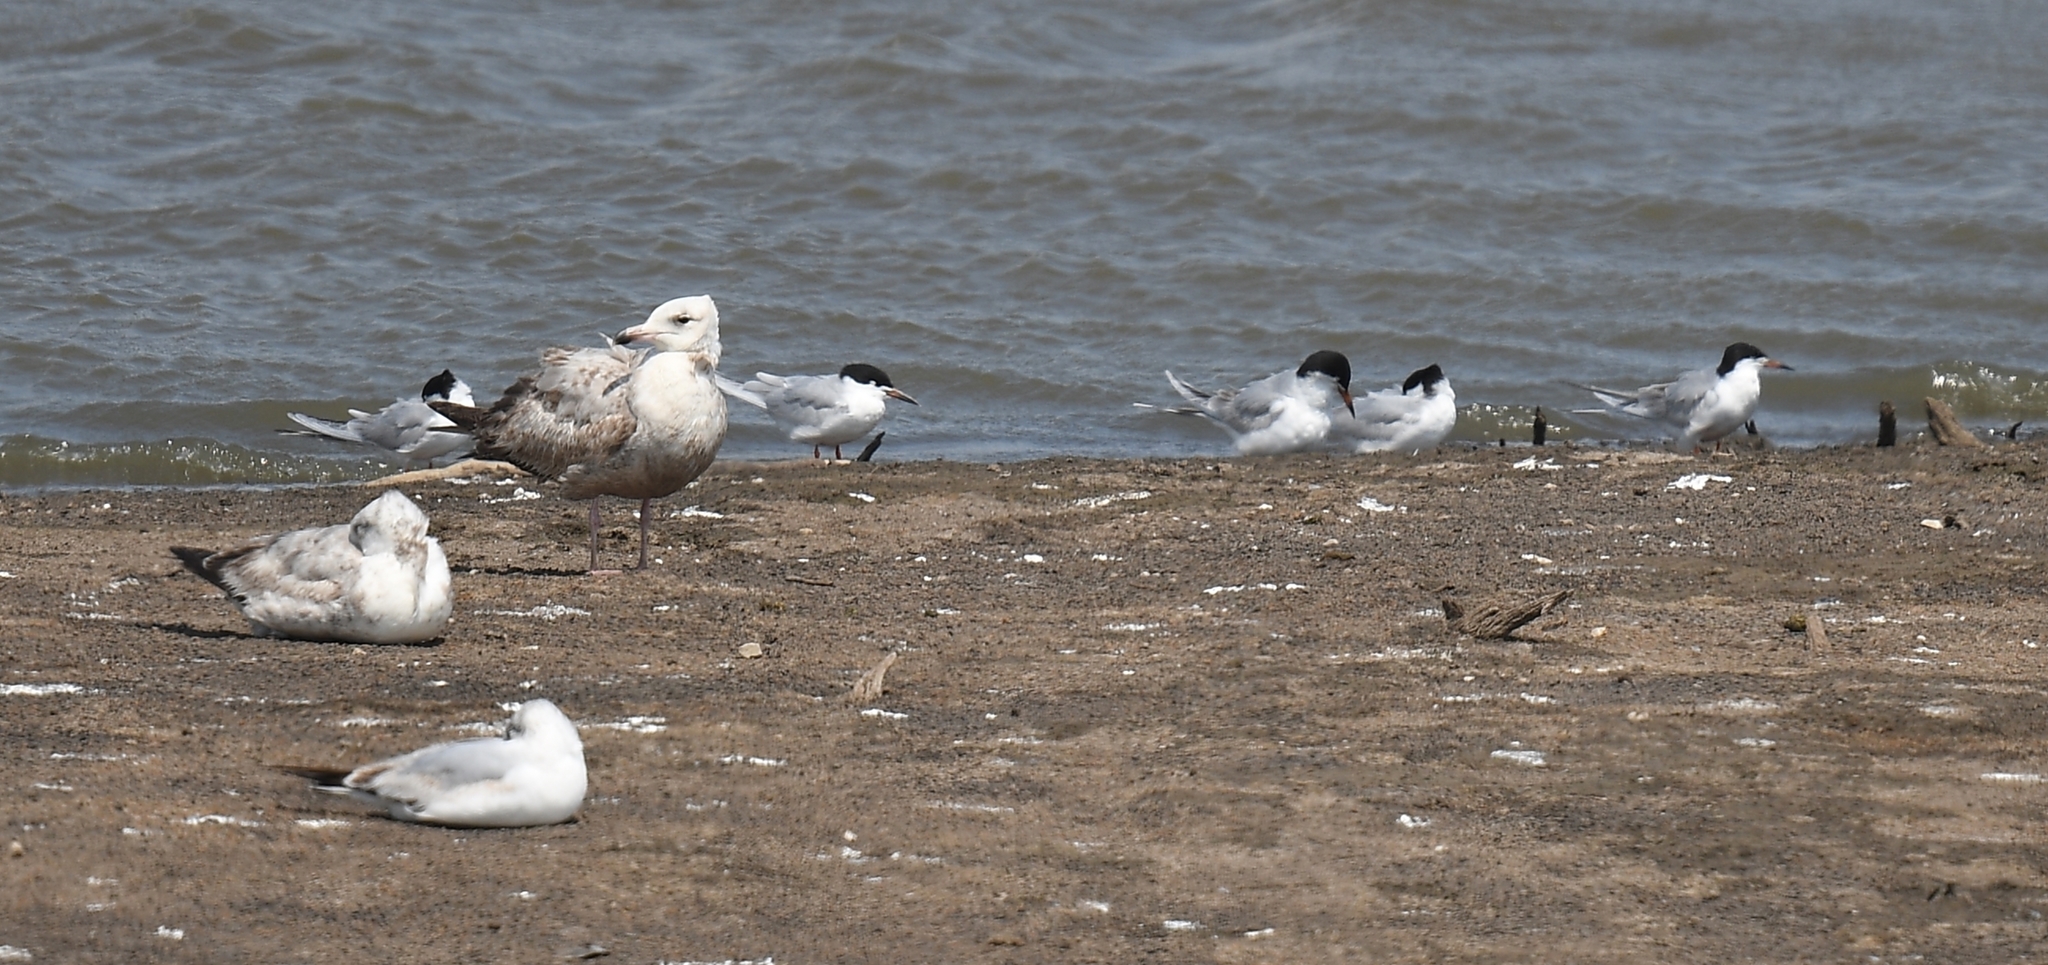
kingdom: Animalia
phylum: Chordata
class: Aves
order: Charadriiformes
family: Laridae
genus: Sterna
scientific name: Sterna forsteri
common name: Forster's tern
